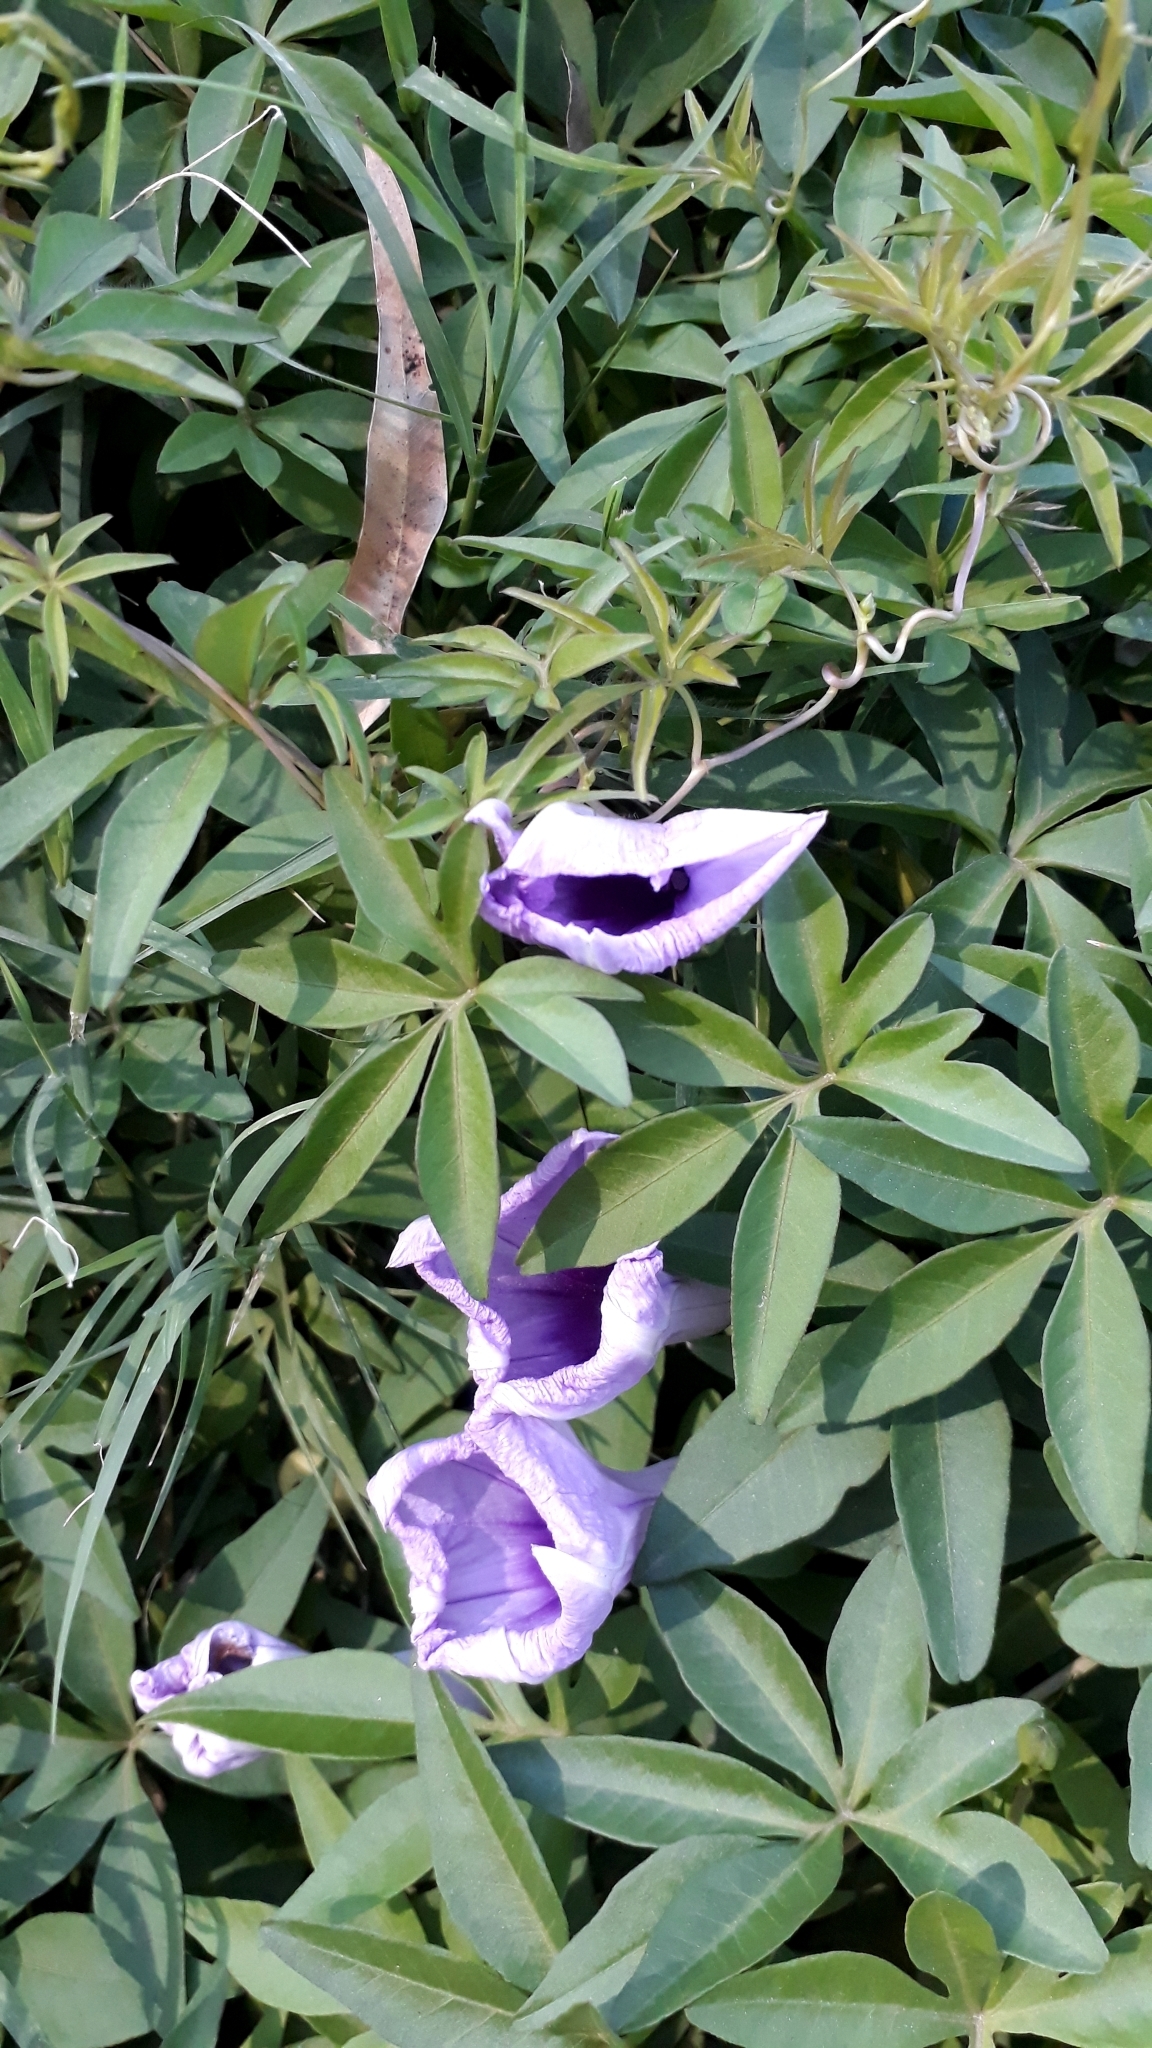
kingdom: Plantae
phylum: Tracheophyta
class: Magnoliopsida
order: Solanales
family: Convolvulaceae
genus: Ipomoea
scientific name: Ipomoea cairica
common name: Mile a minute vine
